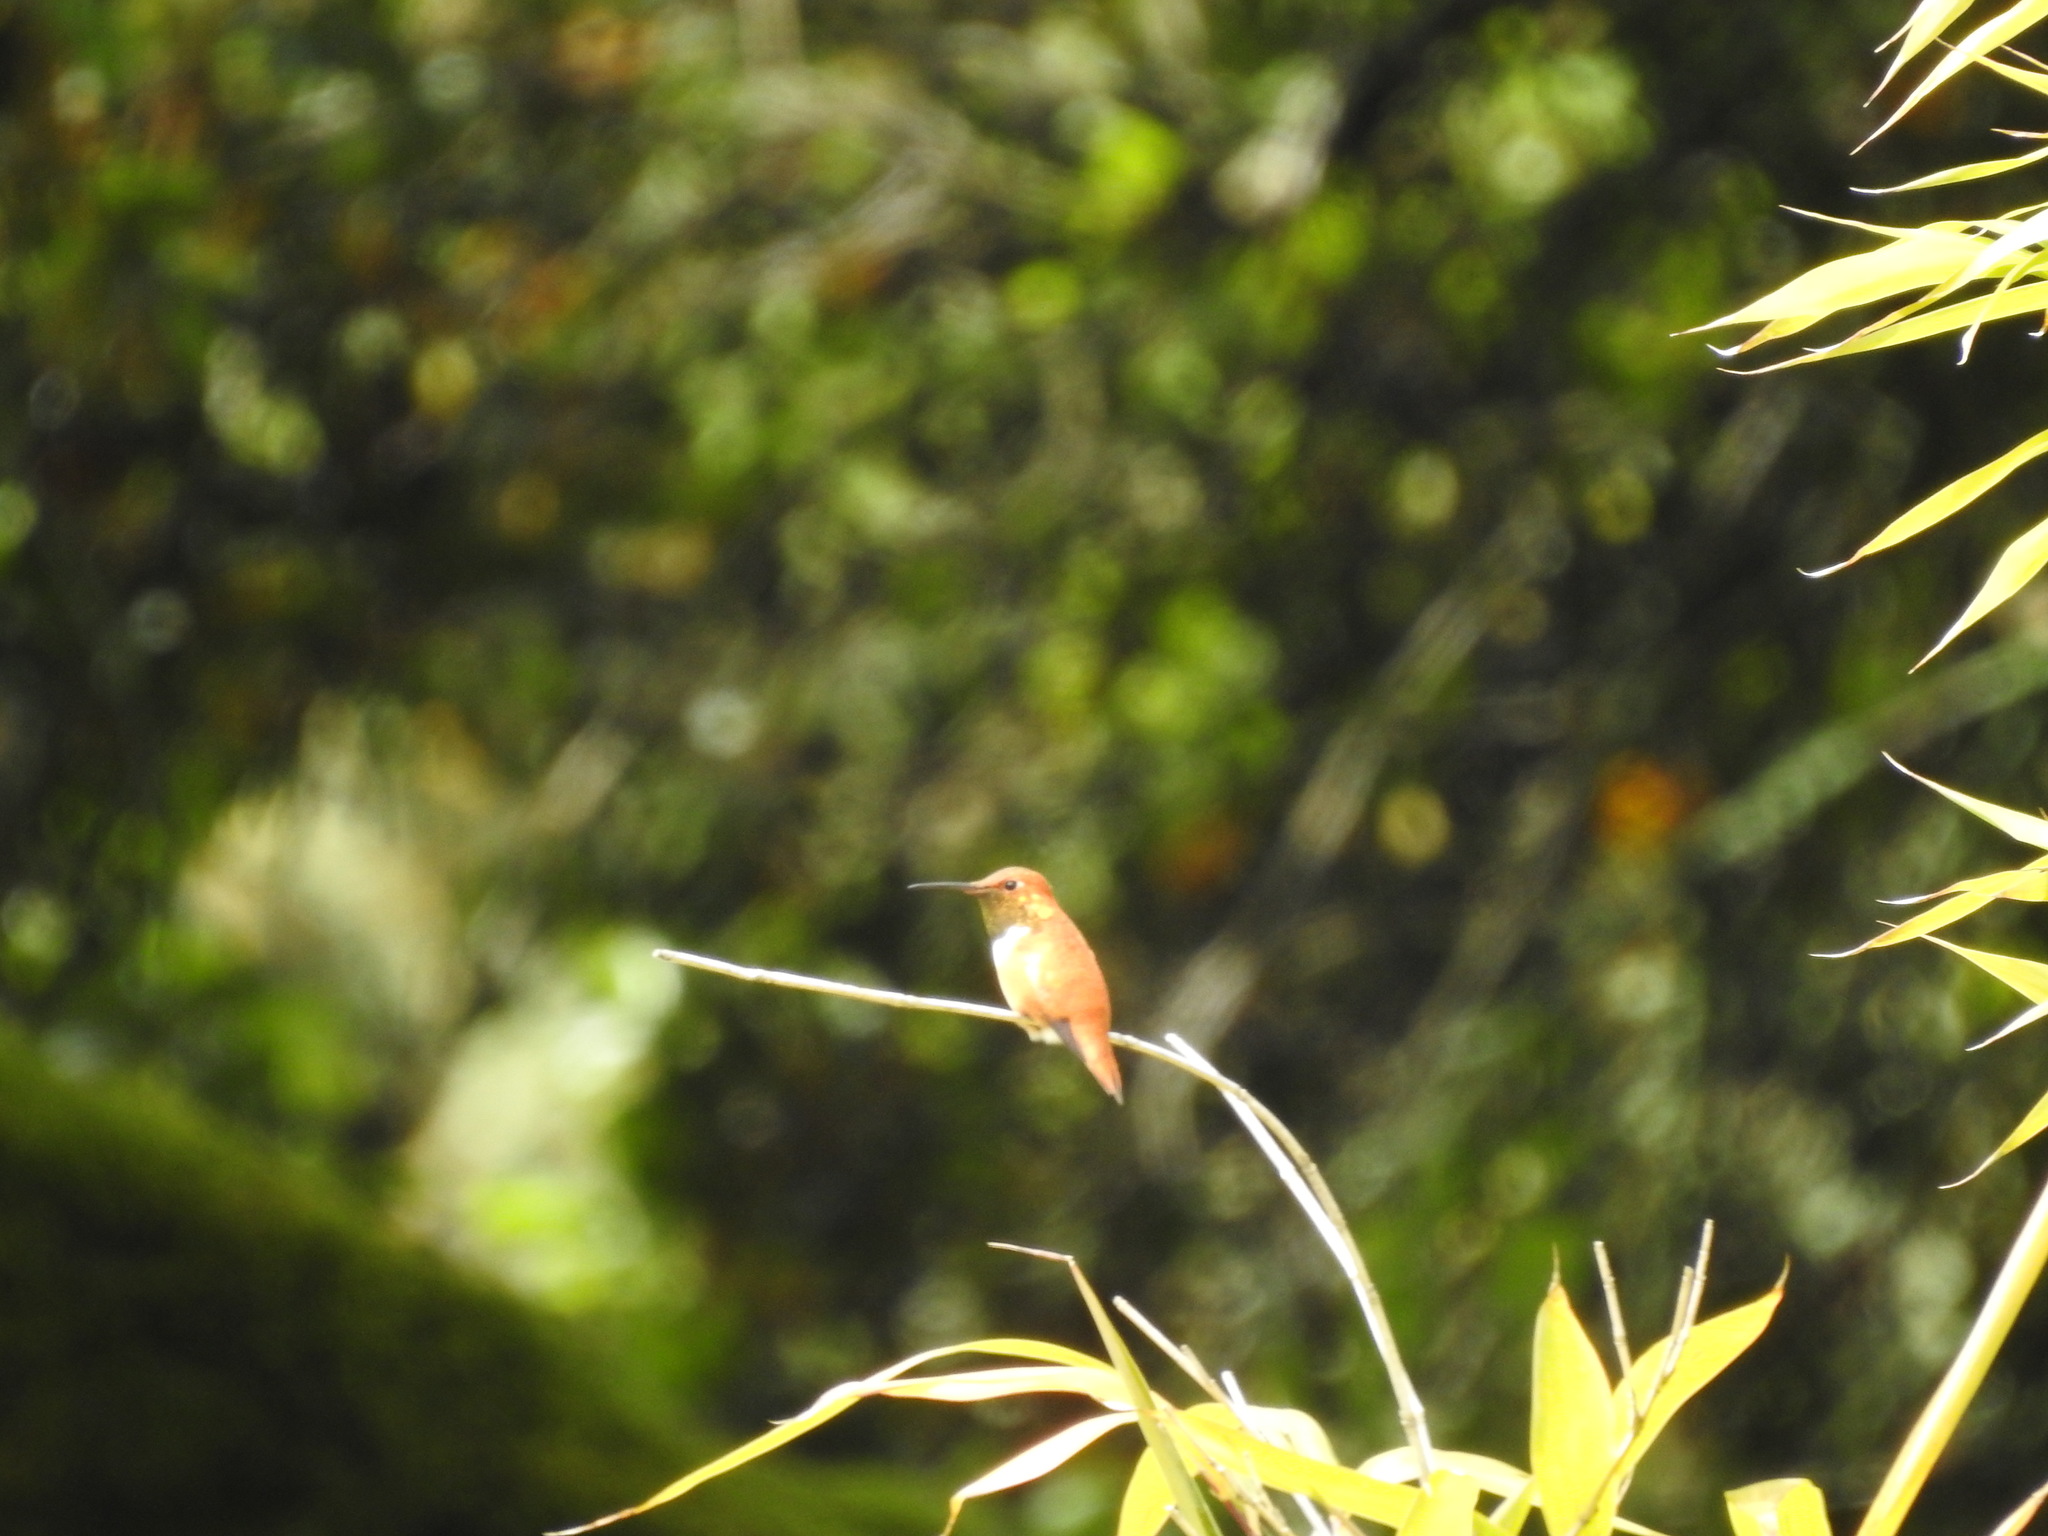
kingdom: Animalia
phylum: Chordata
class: Aves
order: Apodiformes
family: Trochilidae
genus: Selasphorus
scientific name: Selasphorus rufus
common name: Rufous hummingbird
